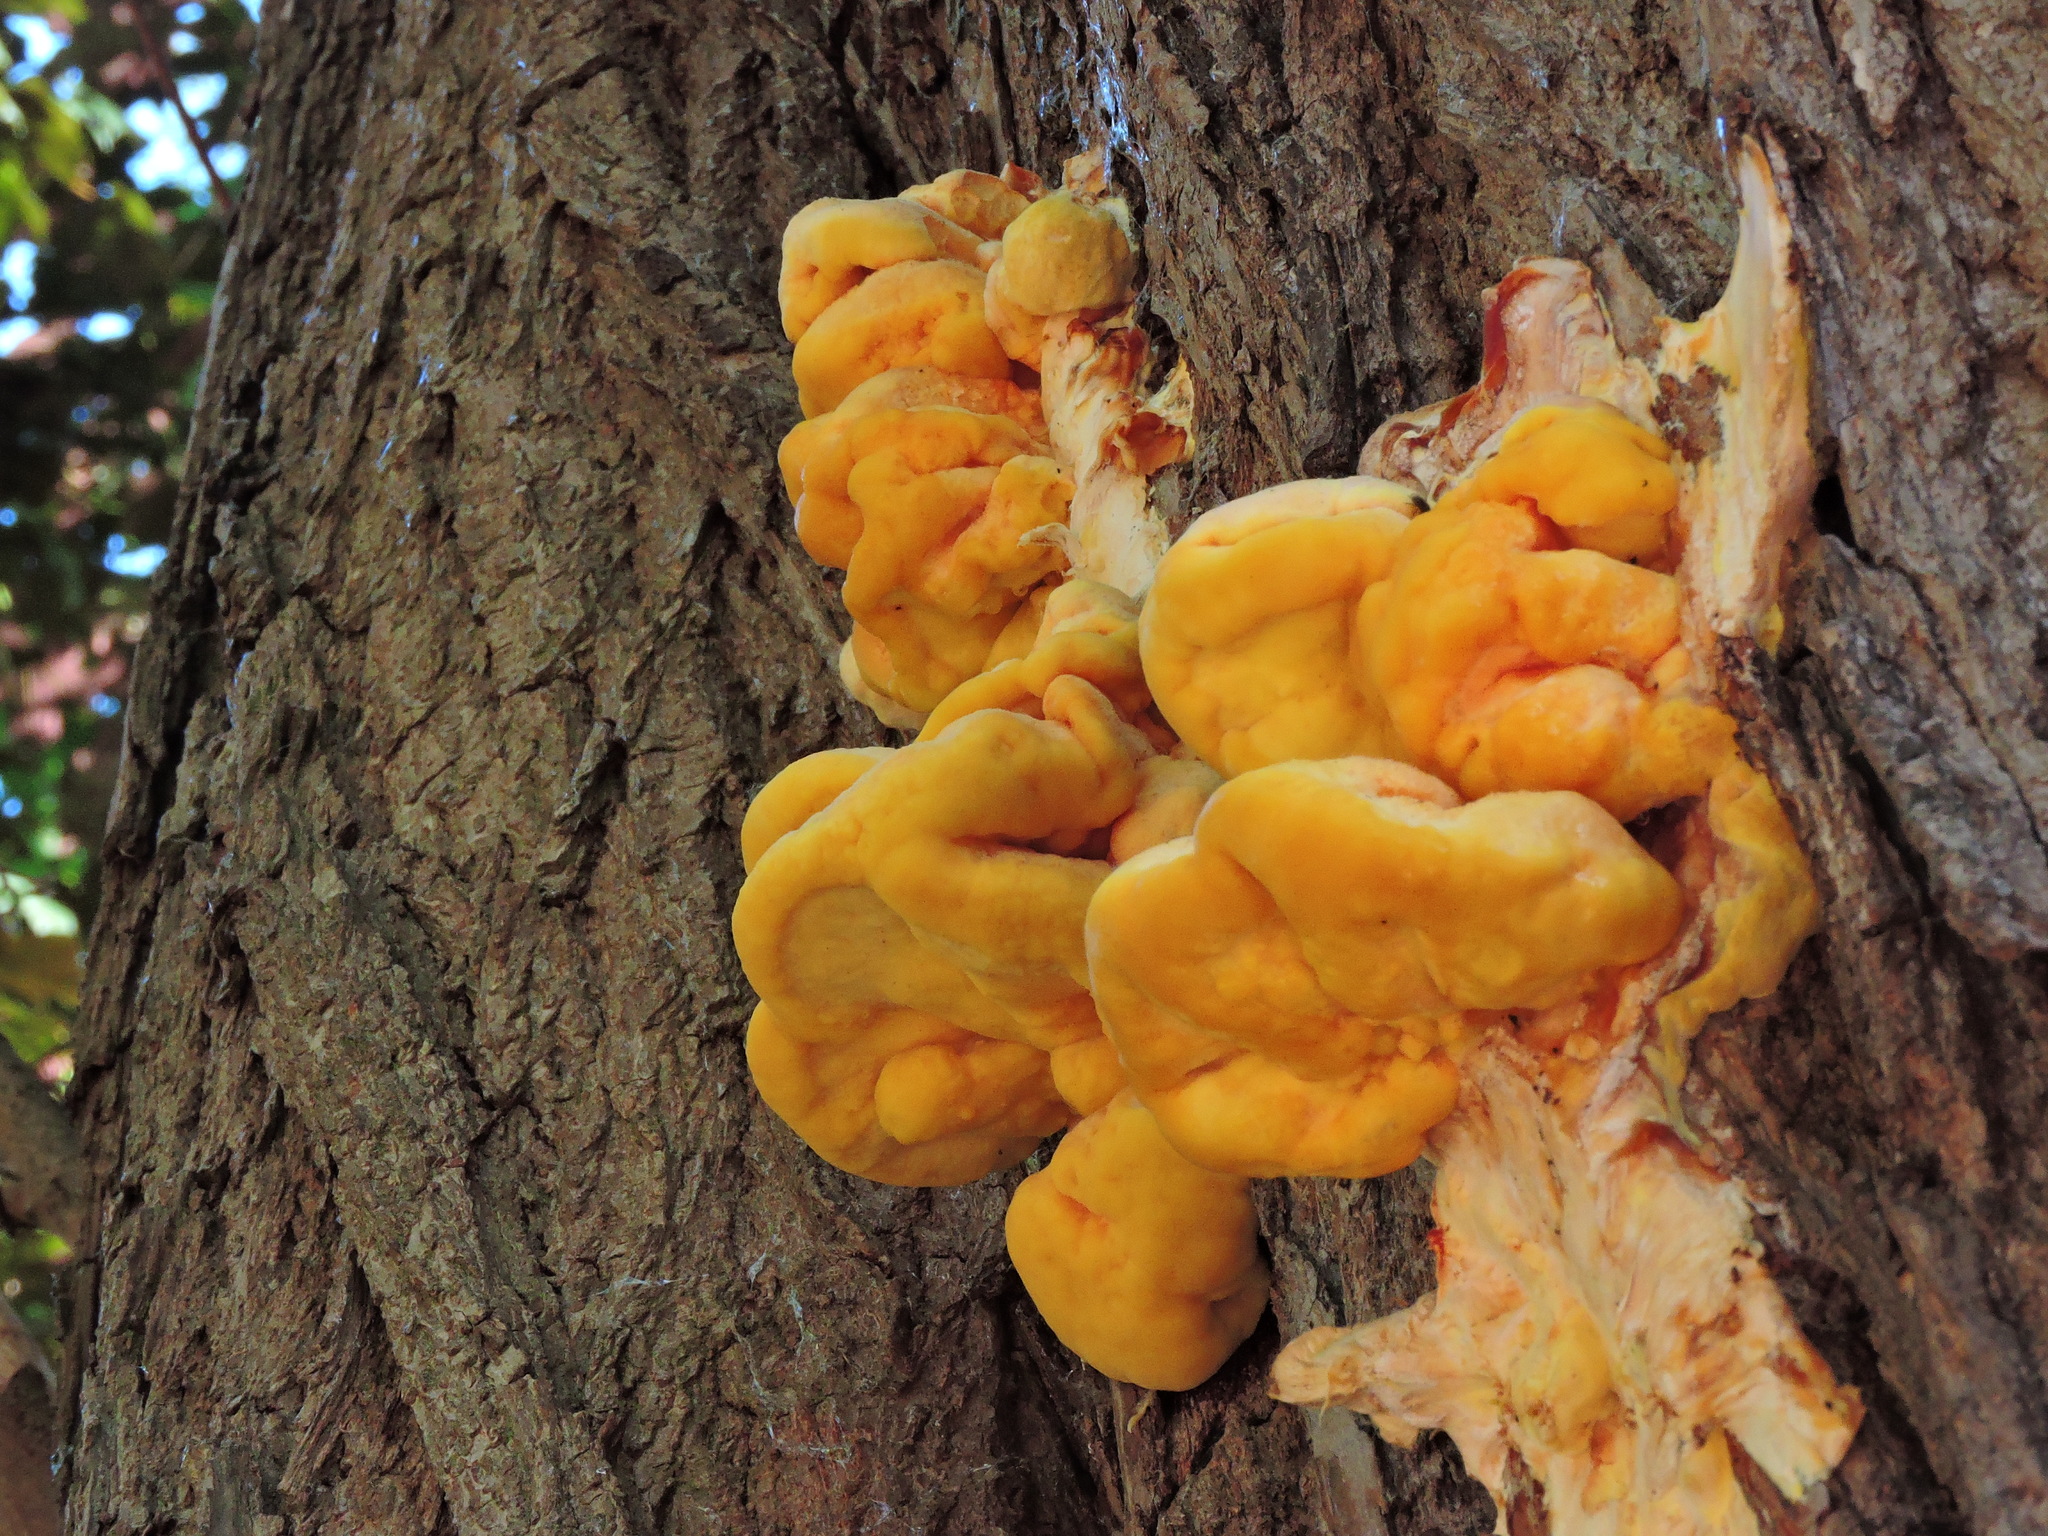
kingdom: Fungi
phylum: Basidiomycota
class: Agaricomycetes
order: Polyporales
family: Laetiporaceae
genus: Laetiporus
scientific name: Laetiporus sulphureus
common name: Chicken of the woods
